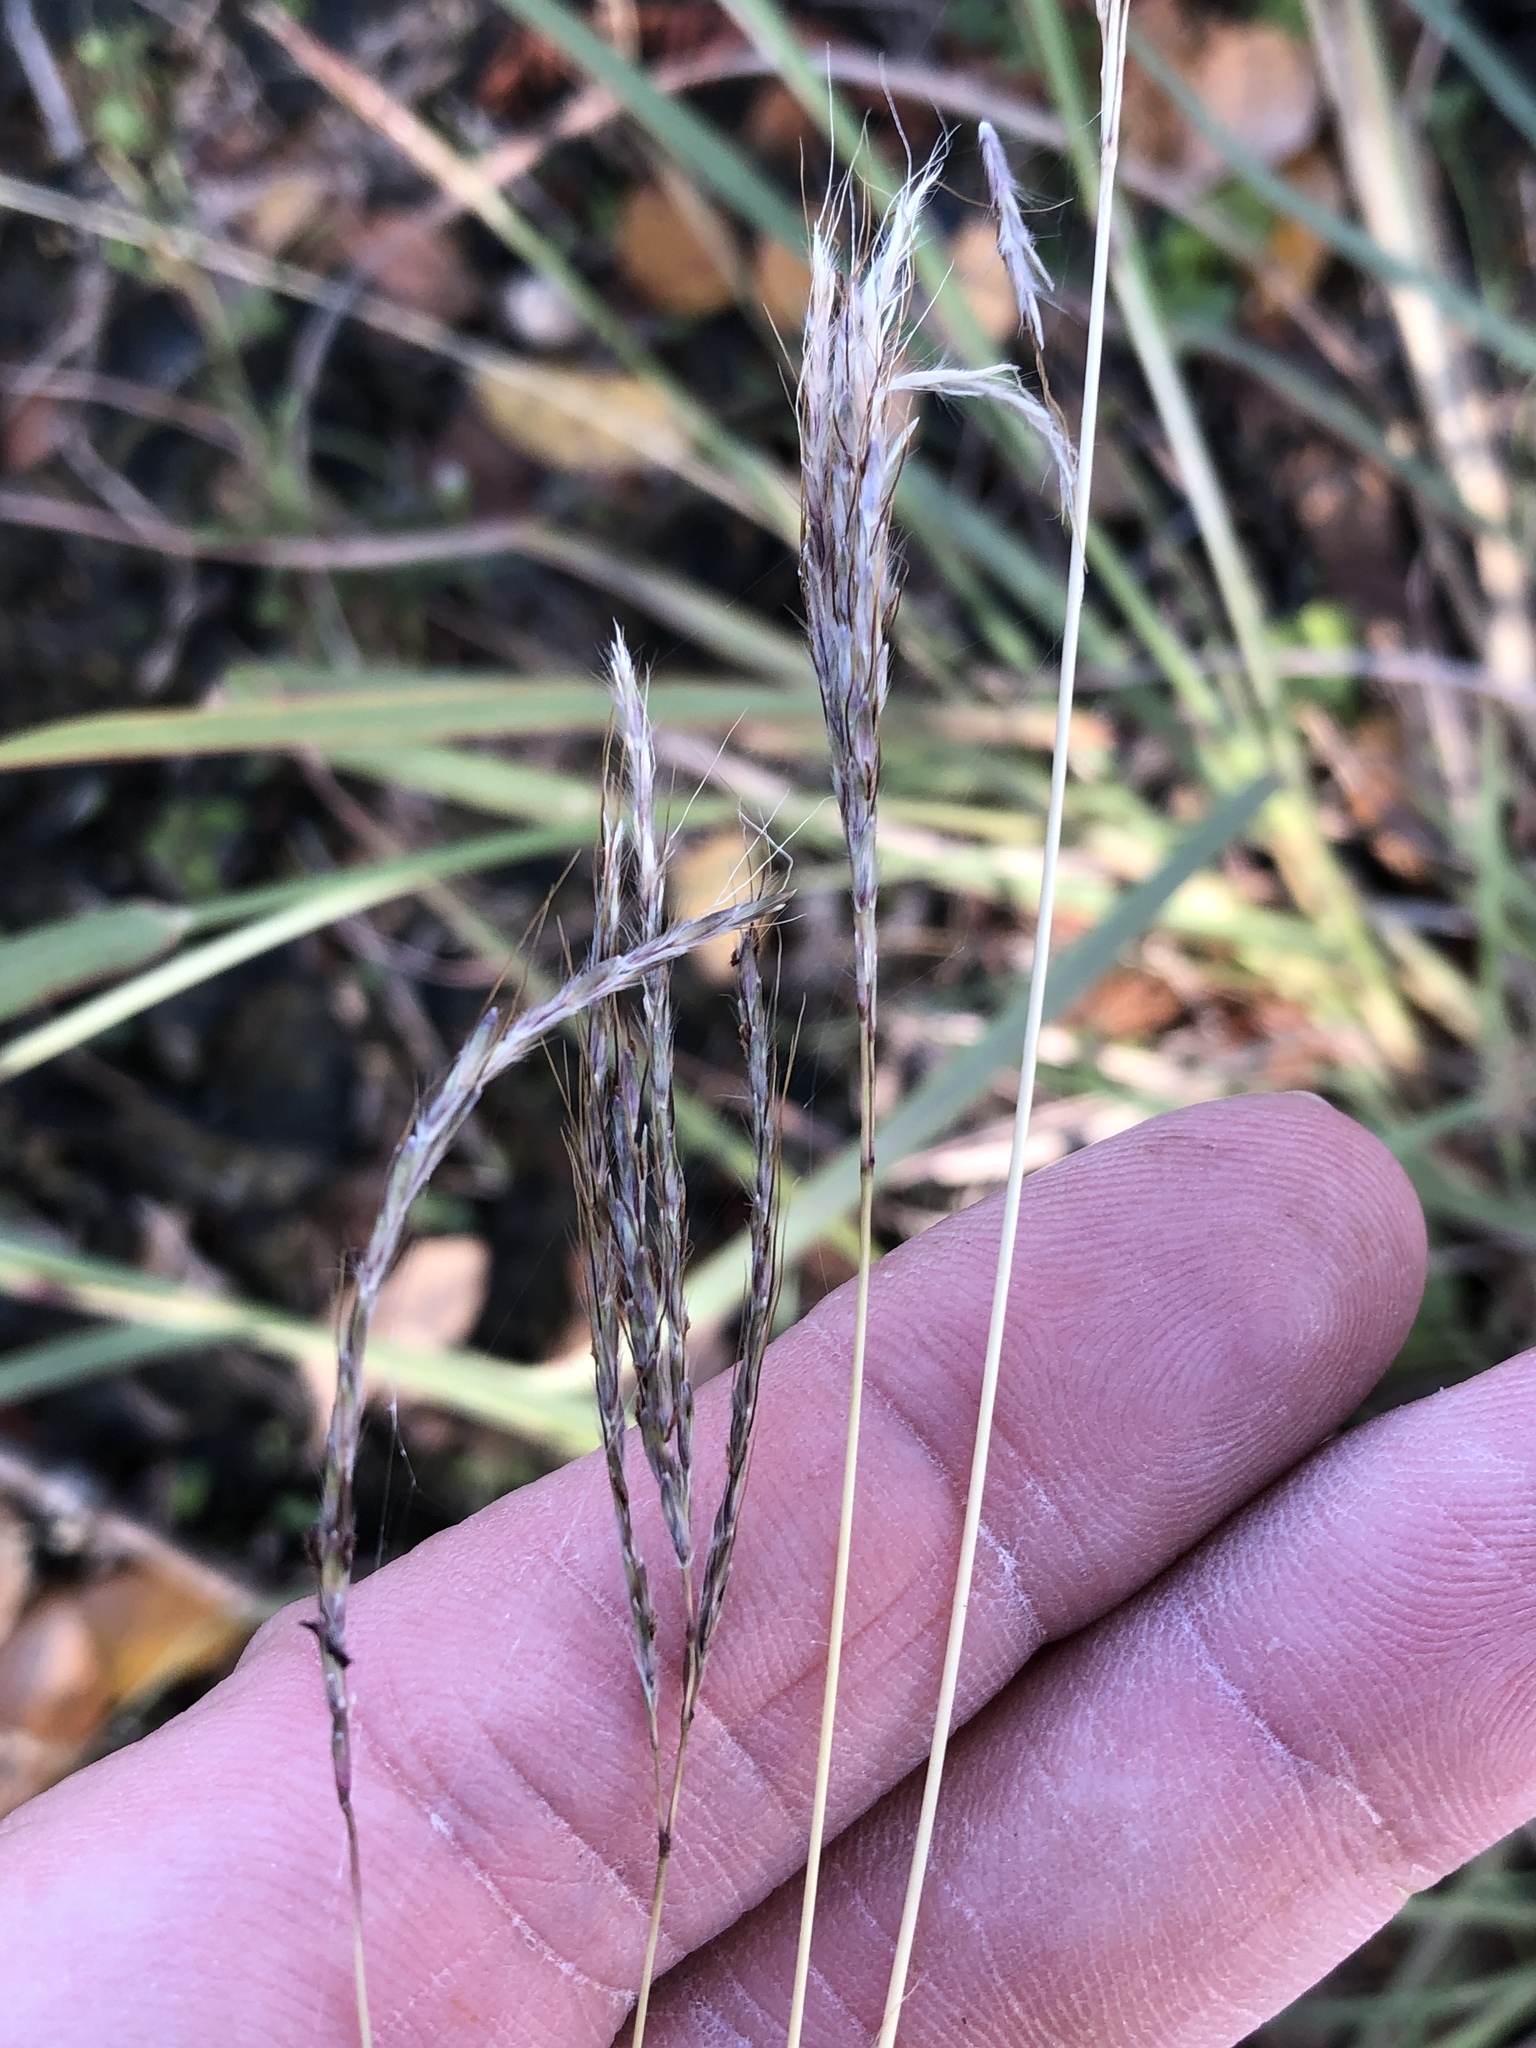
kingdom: Plantae
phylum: Tracheophyta
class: Liliopsida
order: Poales
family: Poaceae
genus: Bothriochloa
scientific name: Bothriochloa ischaemum
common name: Yellow bluestem
